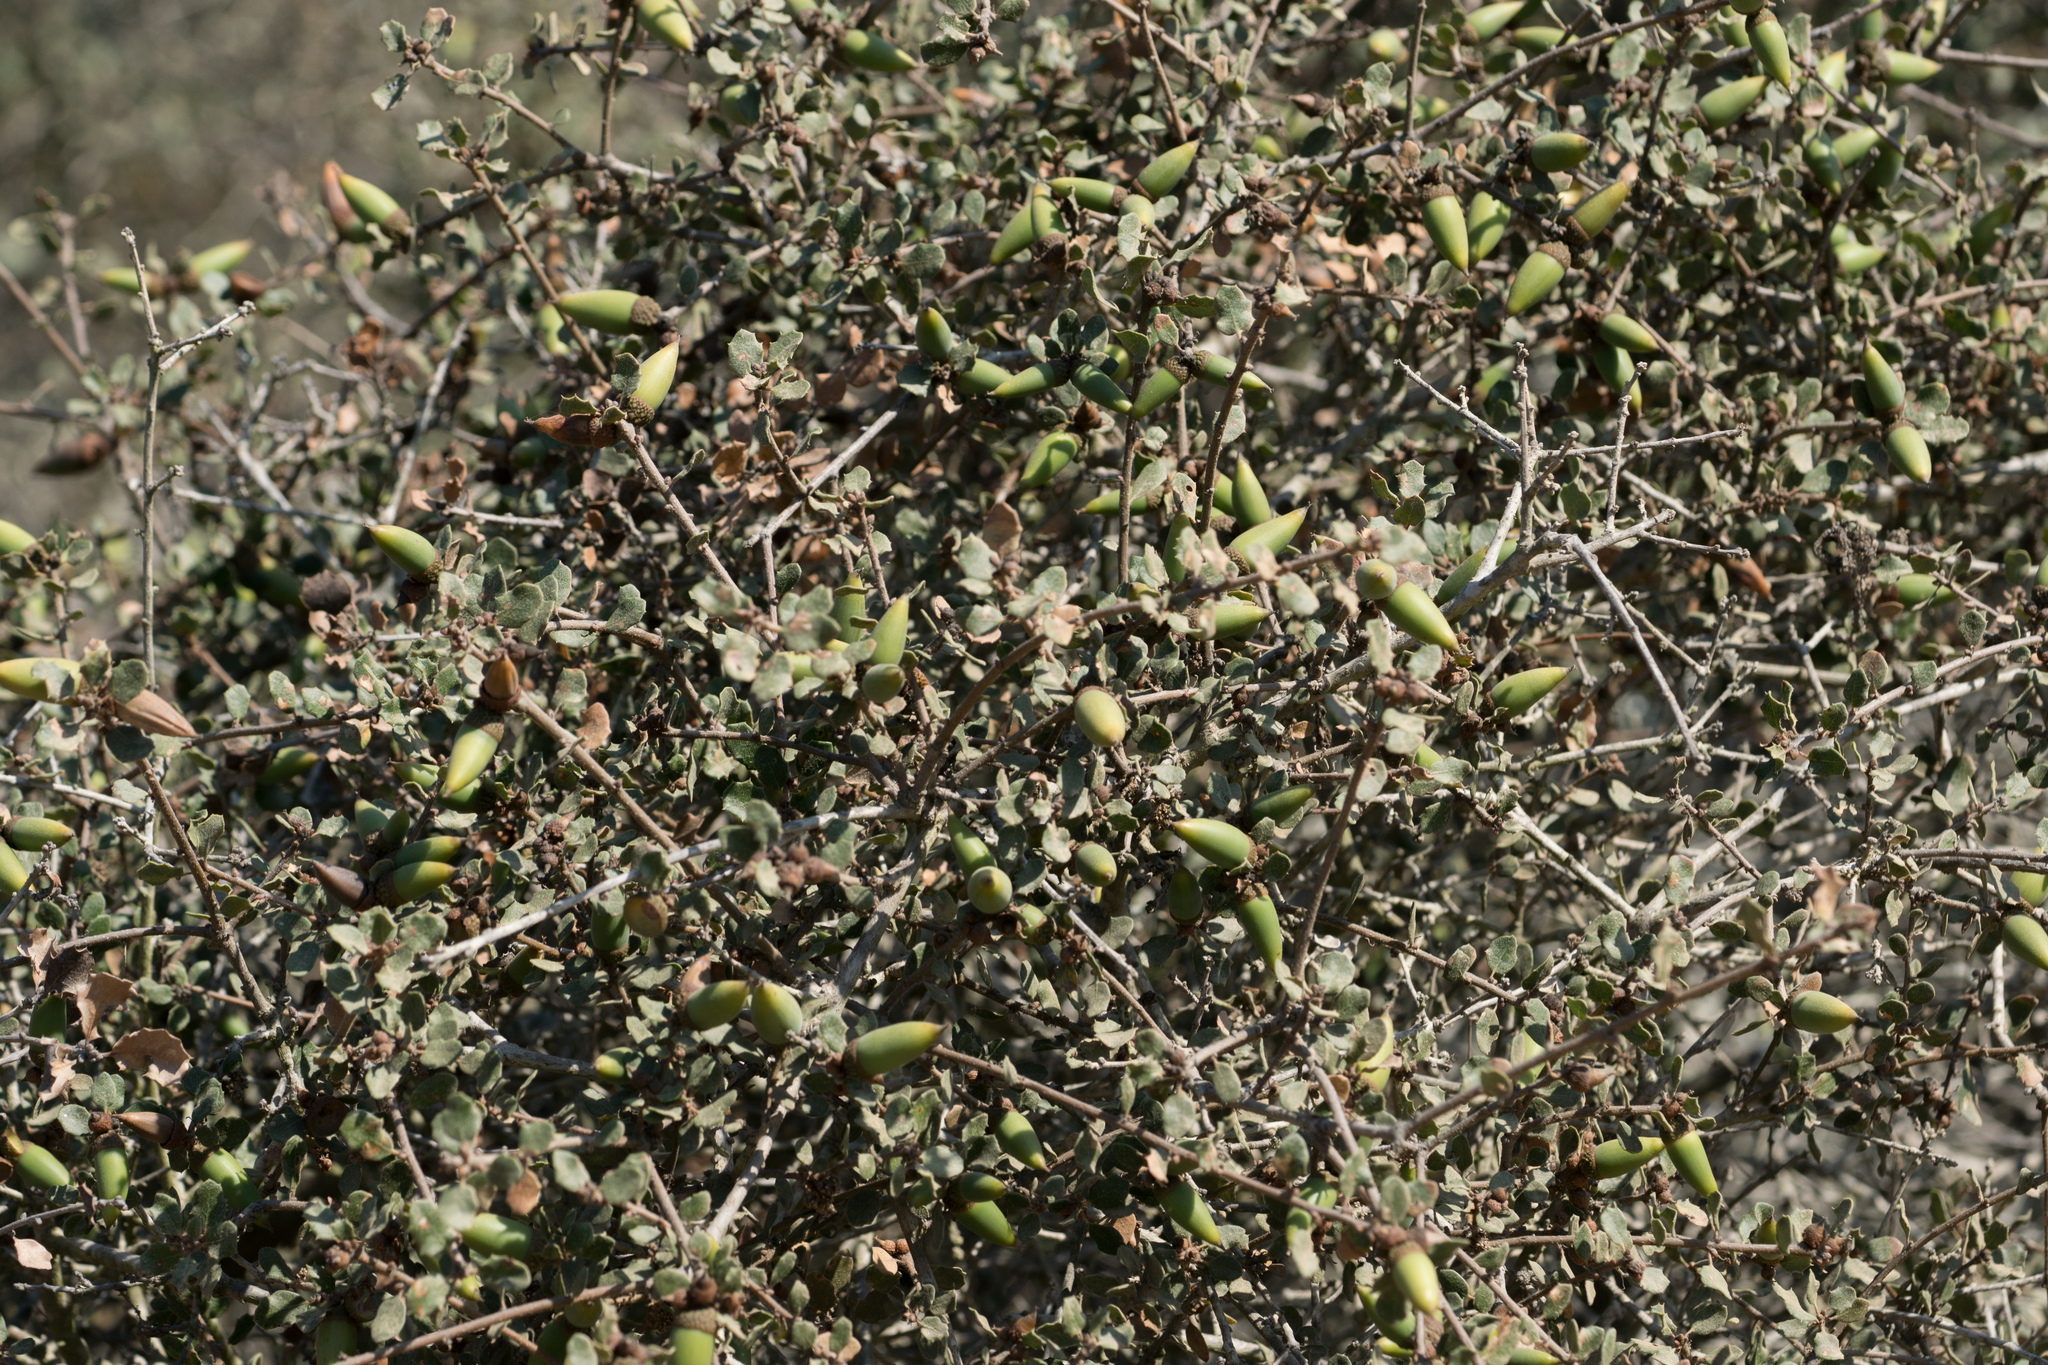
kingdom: Plantae
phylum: Tracheophyta
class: Magnoliopsida
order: Fagales
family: Fagaceae
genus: Quercus
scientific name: Quercus dumosa
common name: Coastal sage scrub oak
